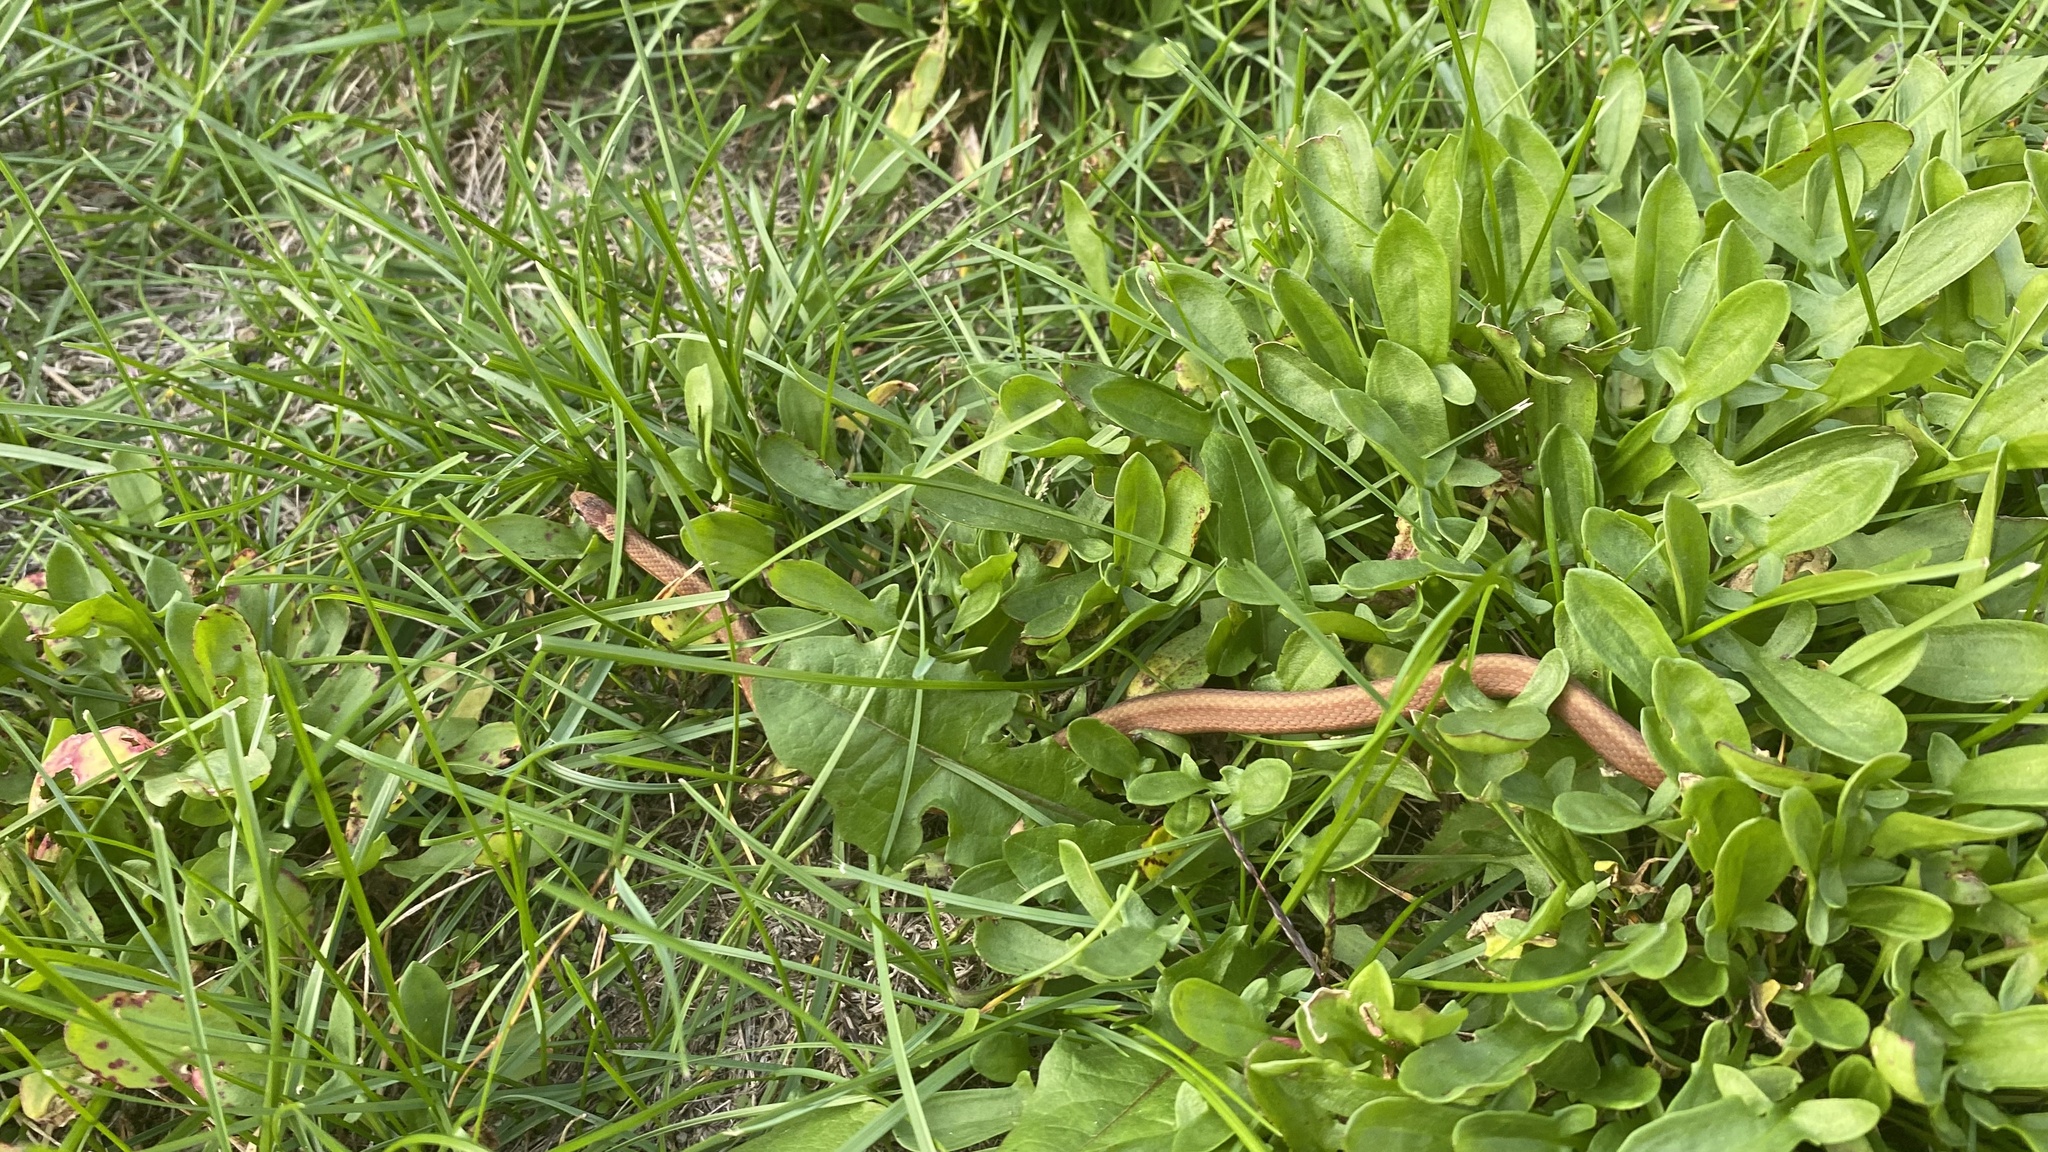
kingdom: Animalia
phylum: Chordata
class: Squamata
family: Colubridae
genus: Storeria
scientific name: Storeria occipitomaculata
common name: Redbelly snake
